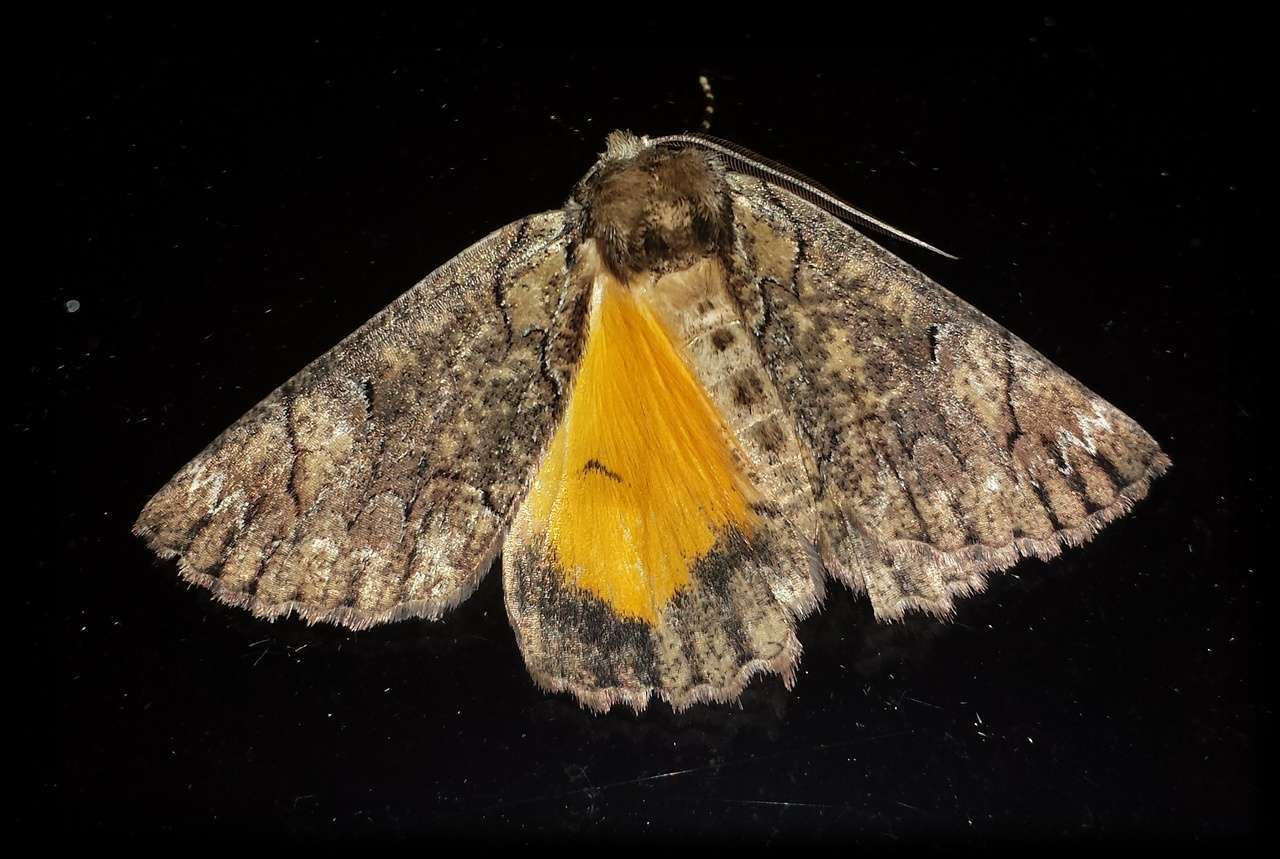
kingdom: Animalia
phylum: Arthropoda
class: Insecta
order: Lepidoptera
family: Geometridae
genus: Heliomystis
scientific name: Heliomystis electrica
